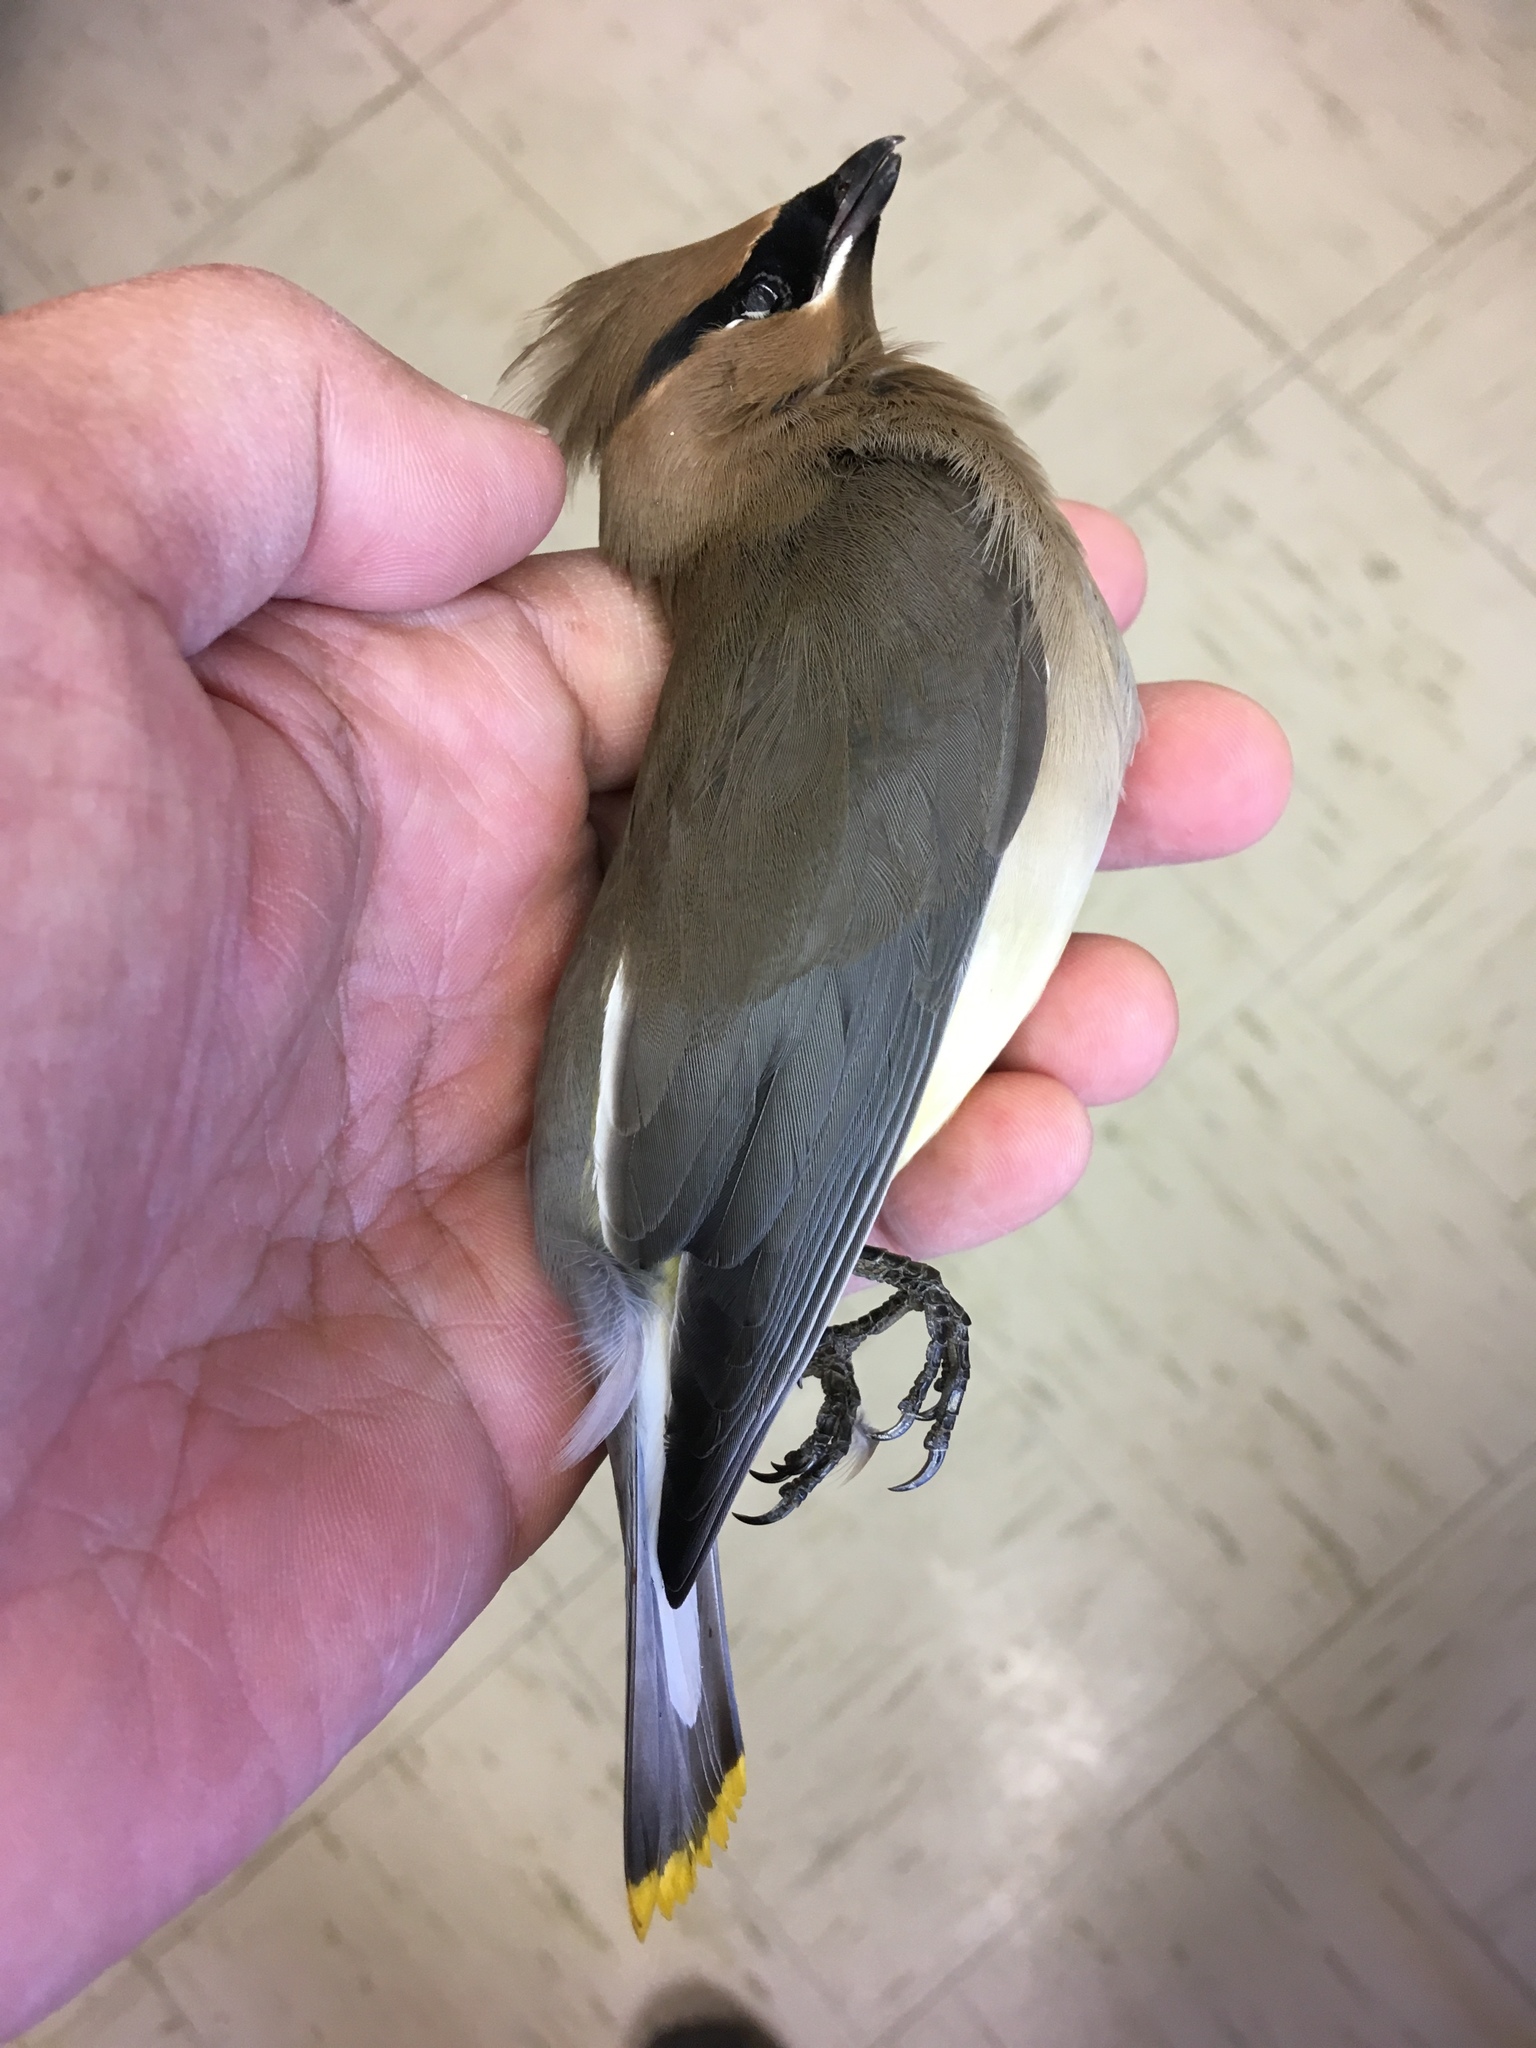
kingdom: Animalia
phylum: Chordata
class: Aves
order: Passeriformes
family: Bombycillidae
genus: Bombycilla
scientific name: Bombycilla cedrorum
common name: Cedar waxwing
